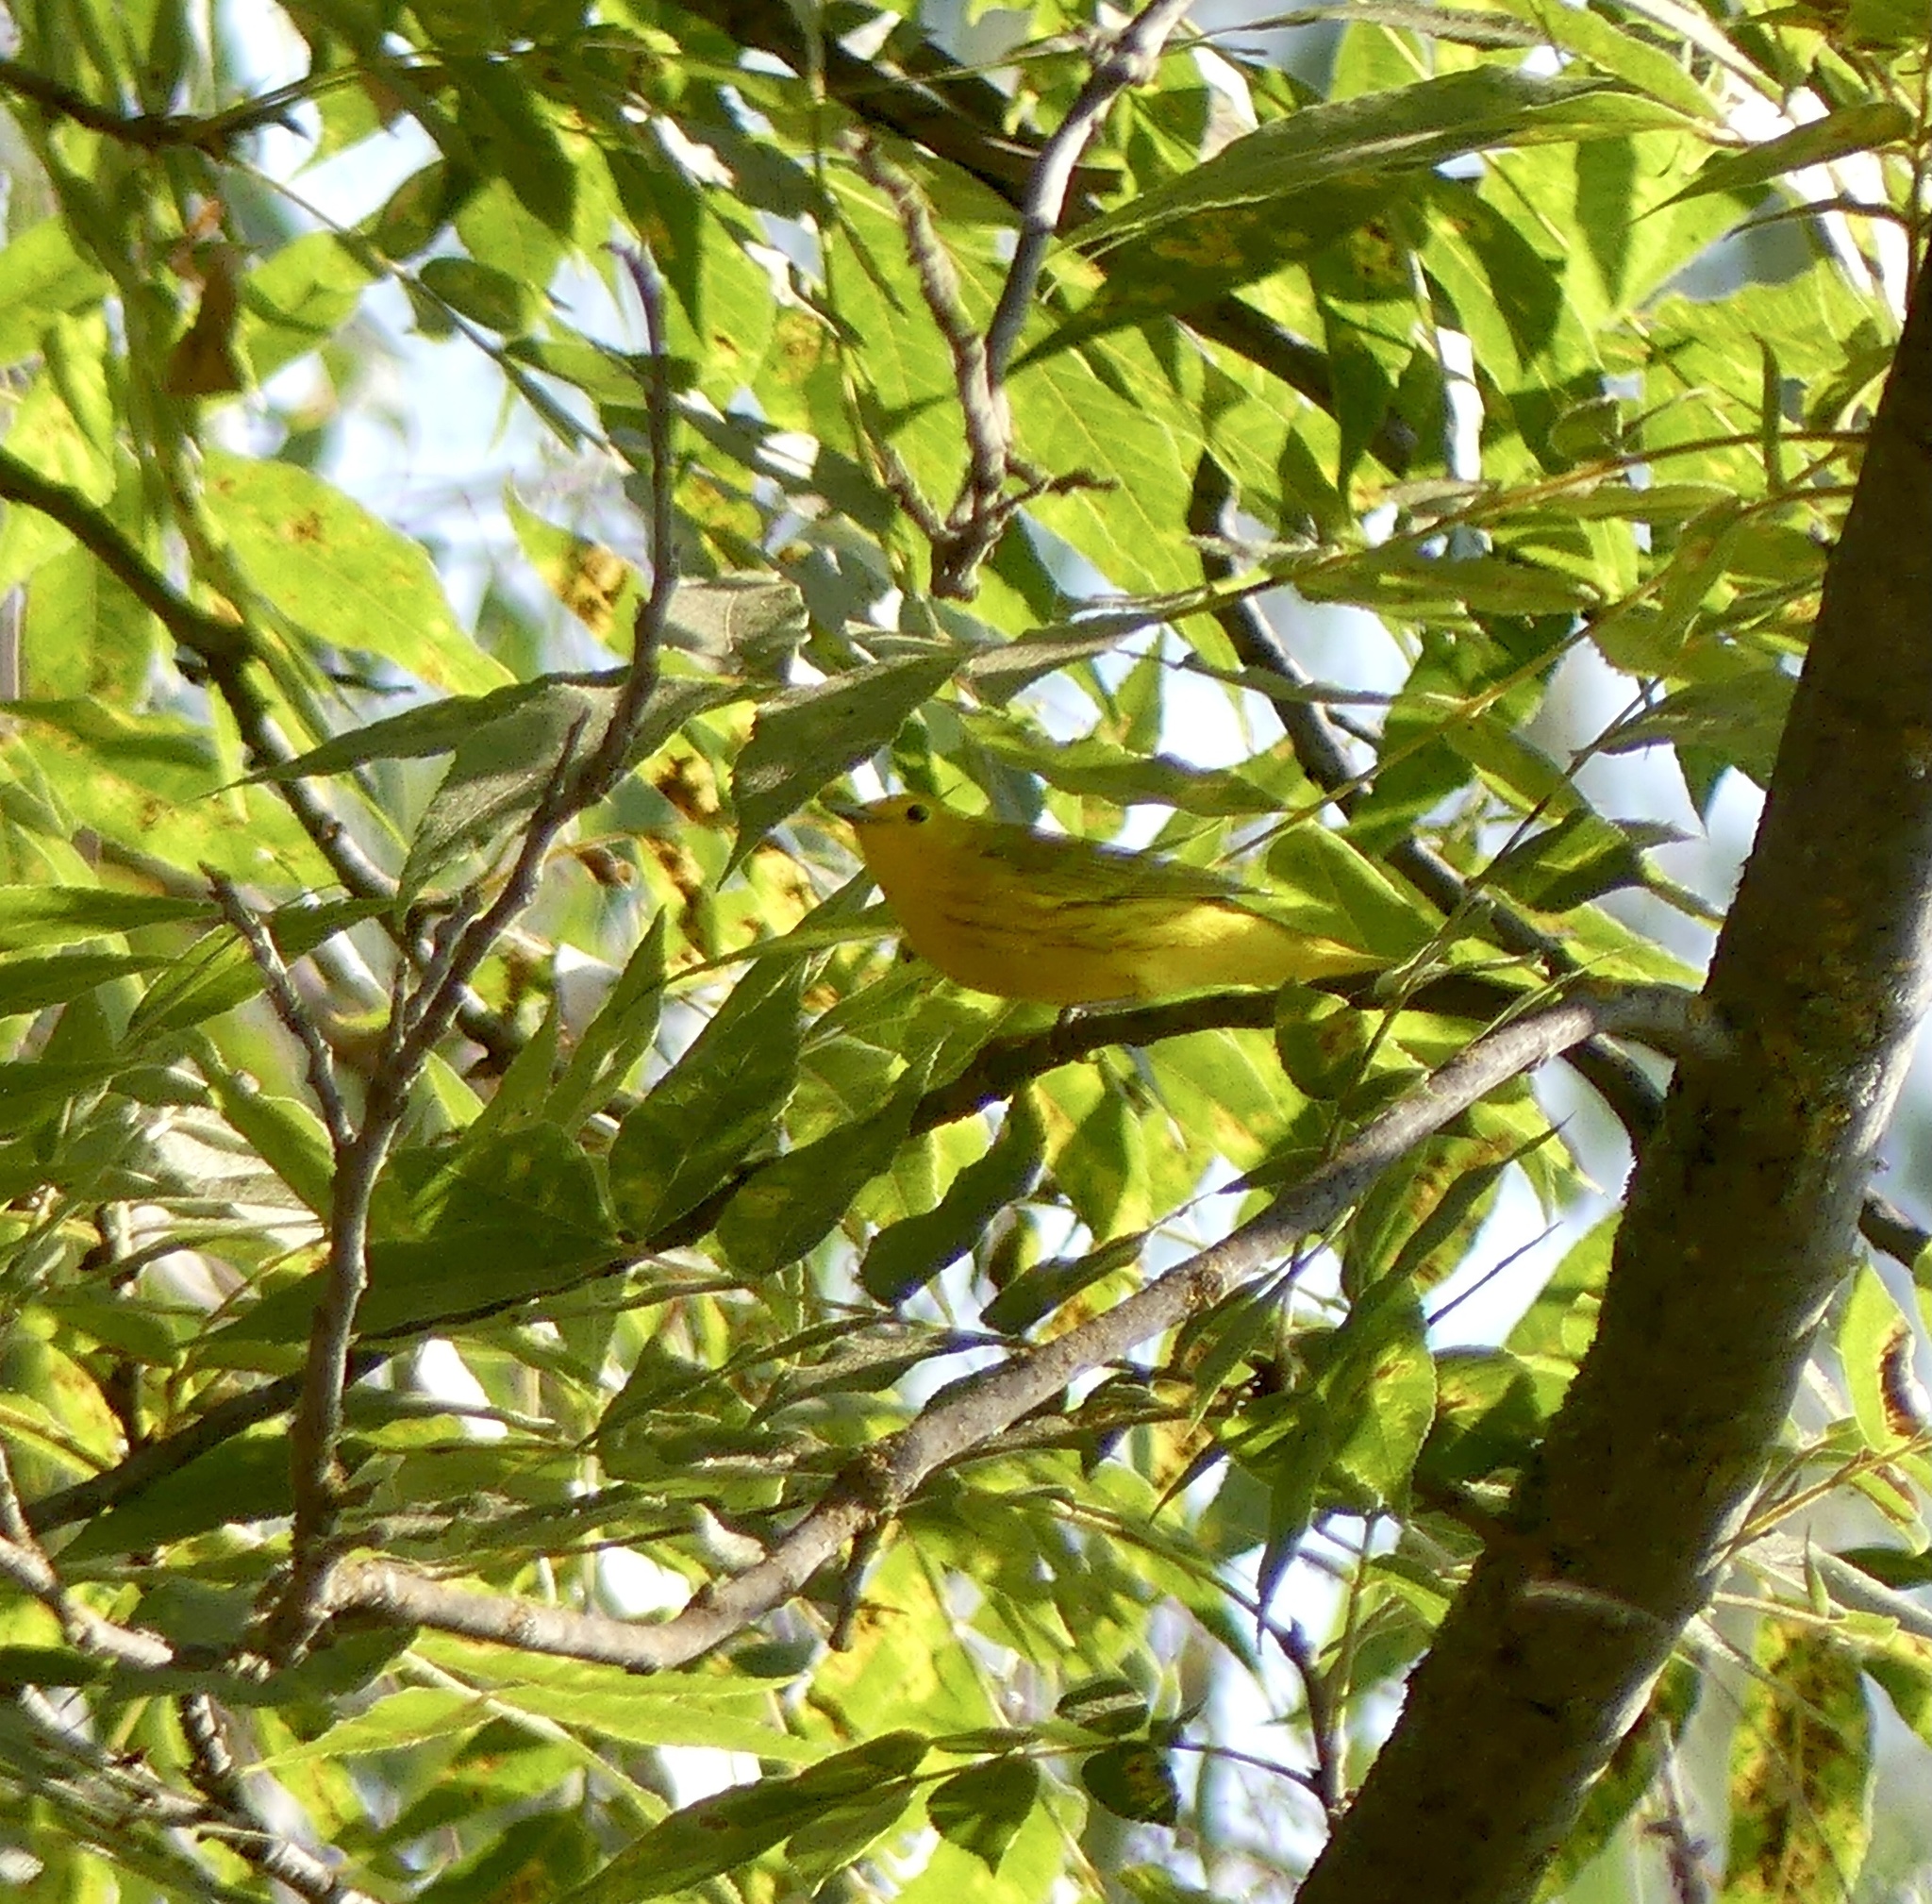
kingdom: Animalia
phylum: Chordata
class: Aves
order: Passeriformes
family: Parulidae
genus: Setophaga
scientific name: Setophaga petechia
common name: Yellow warbler
